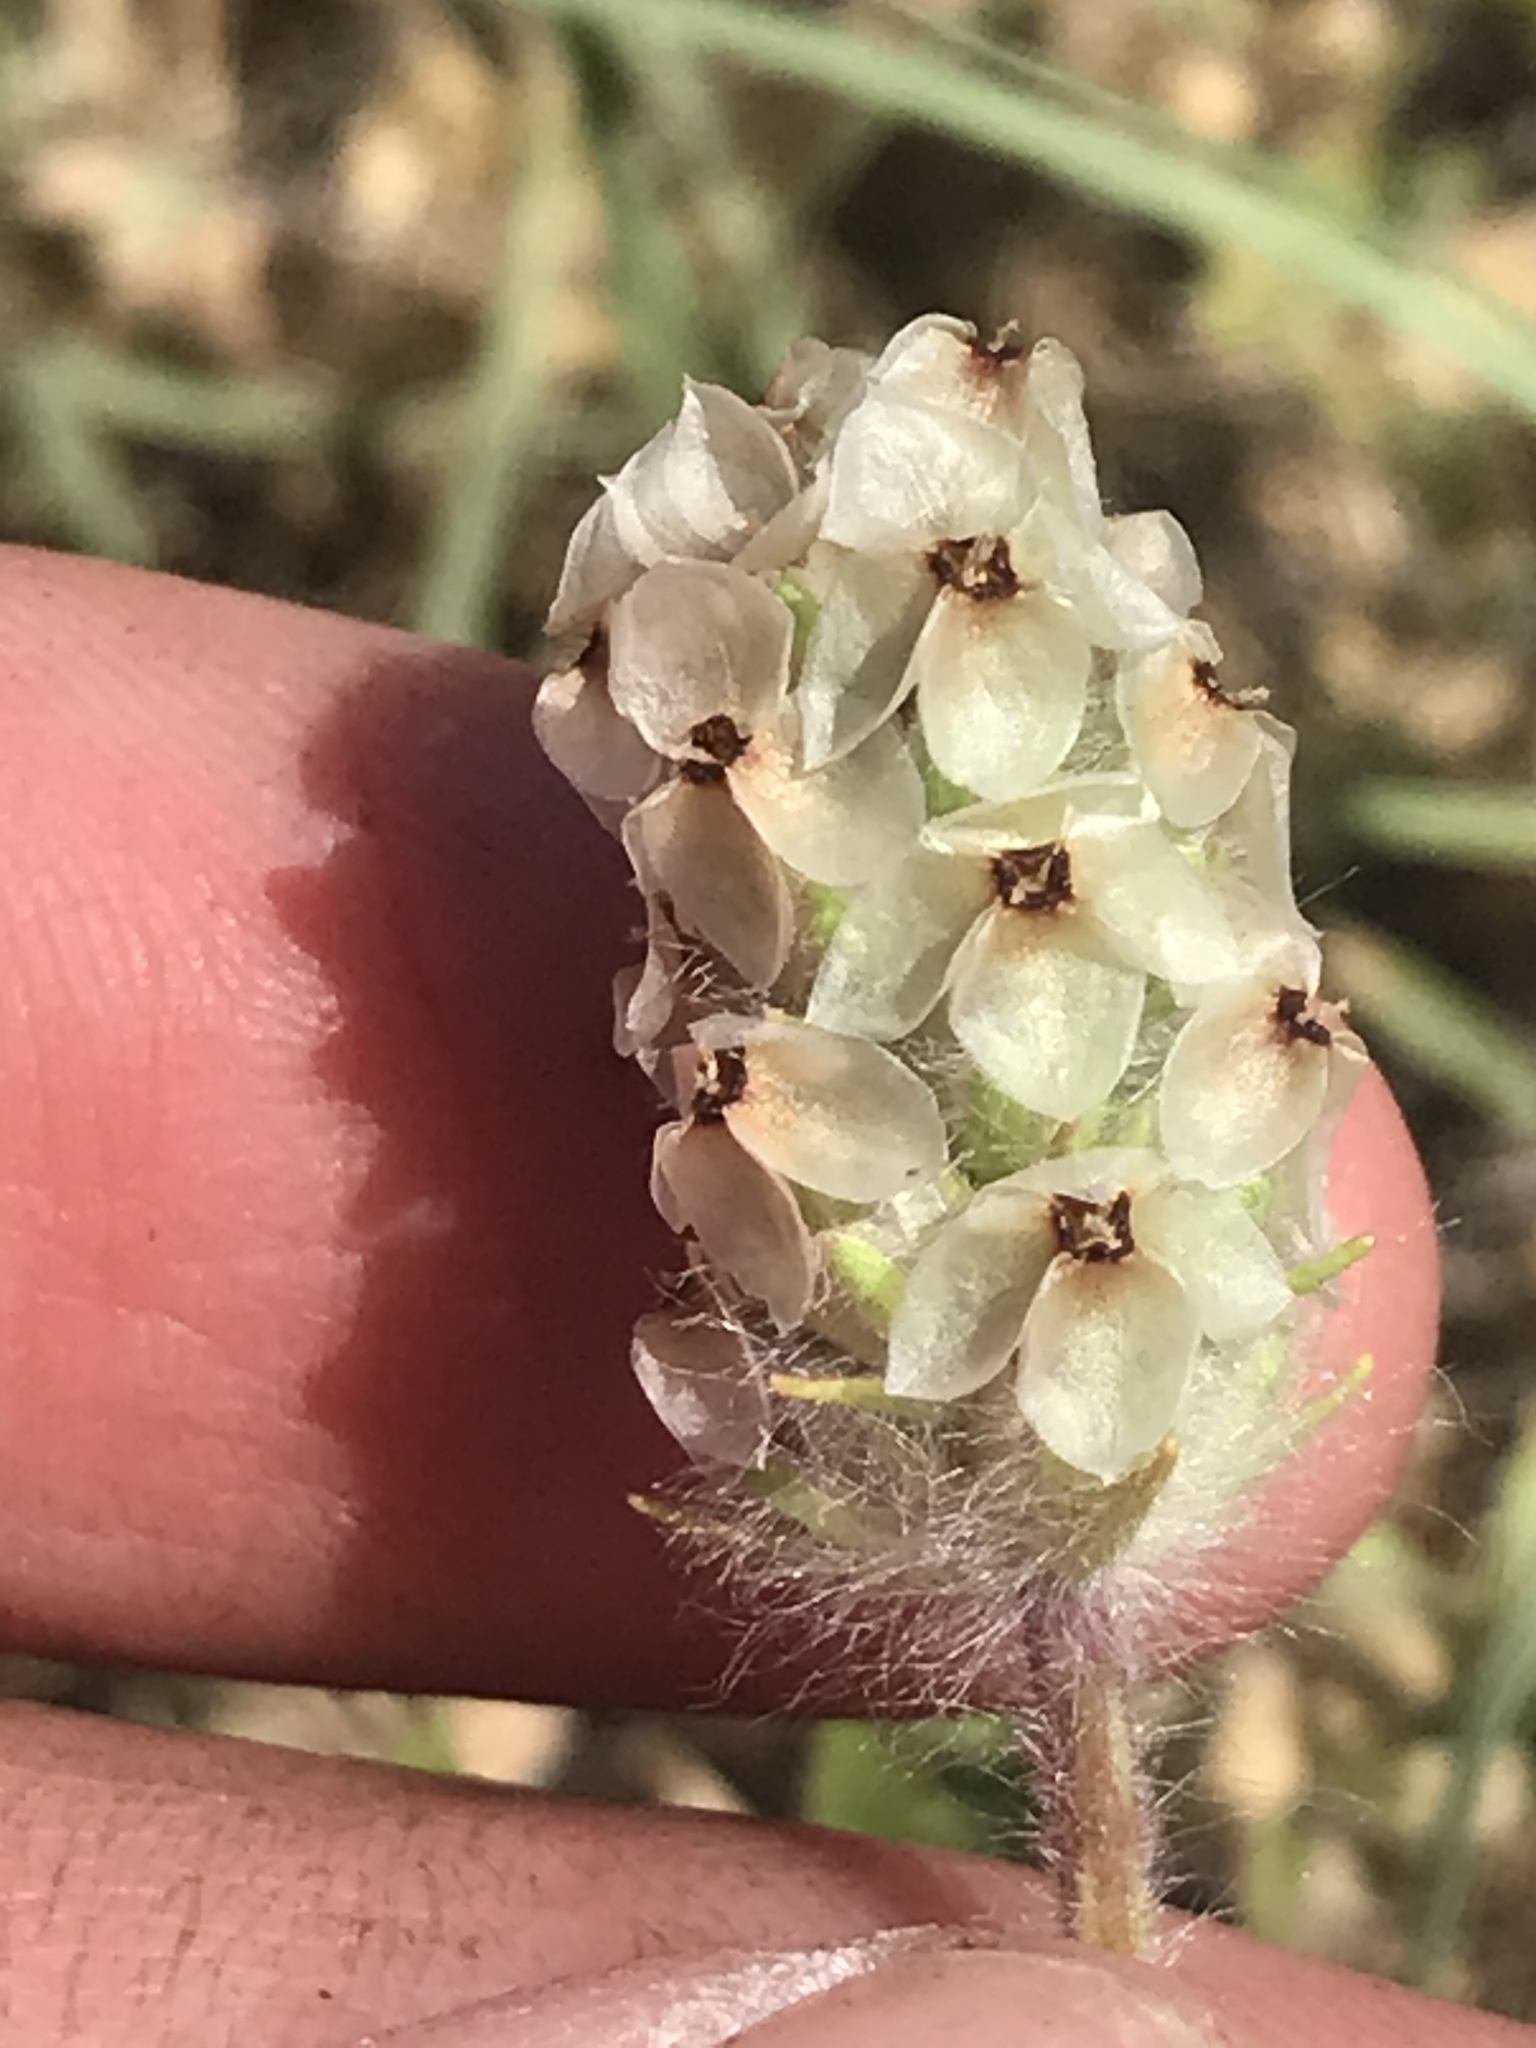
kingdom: Plantae
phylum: Tracheophyta
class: Magnoliopsida
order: Lamiales
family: Plantaginaceae
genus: Plantago
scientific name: Plantago helleri
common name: Heller's plantain
